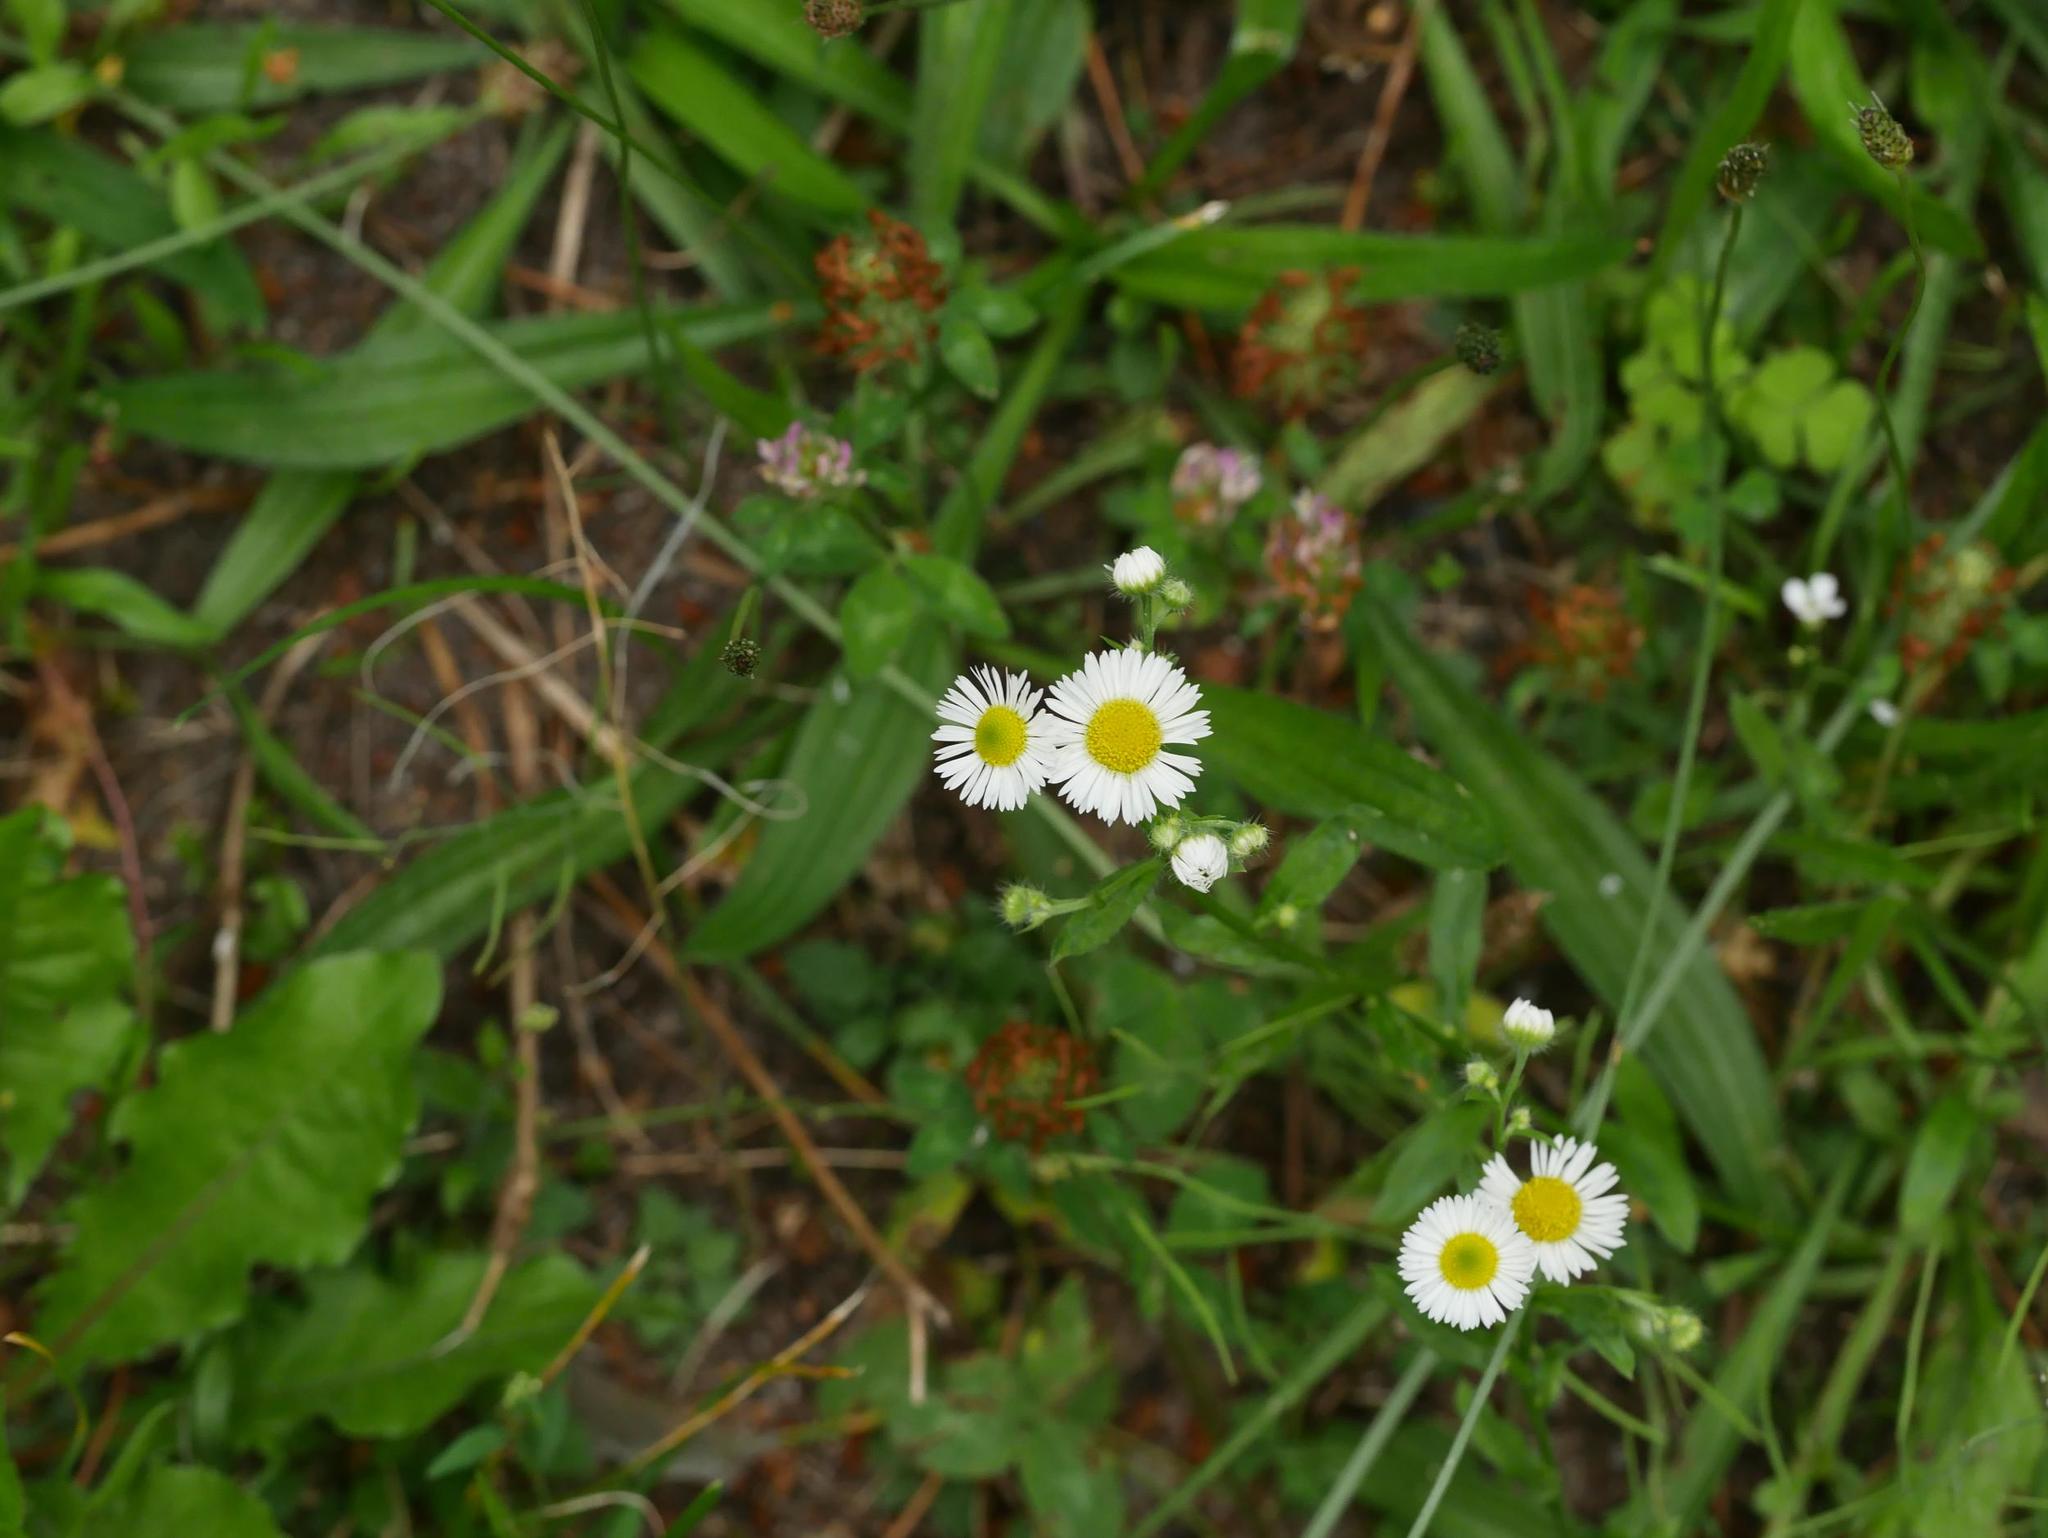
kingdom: Plantae
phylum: Tracheophyta
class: Magnoliopsida
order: Asterales
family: Asteraceae
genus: Erigeron
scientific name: Erigeron annuus
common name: Tall fleabane
